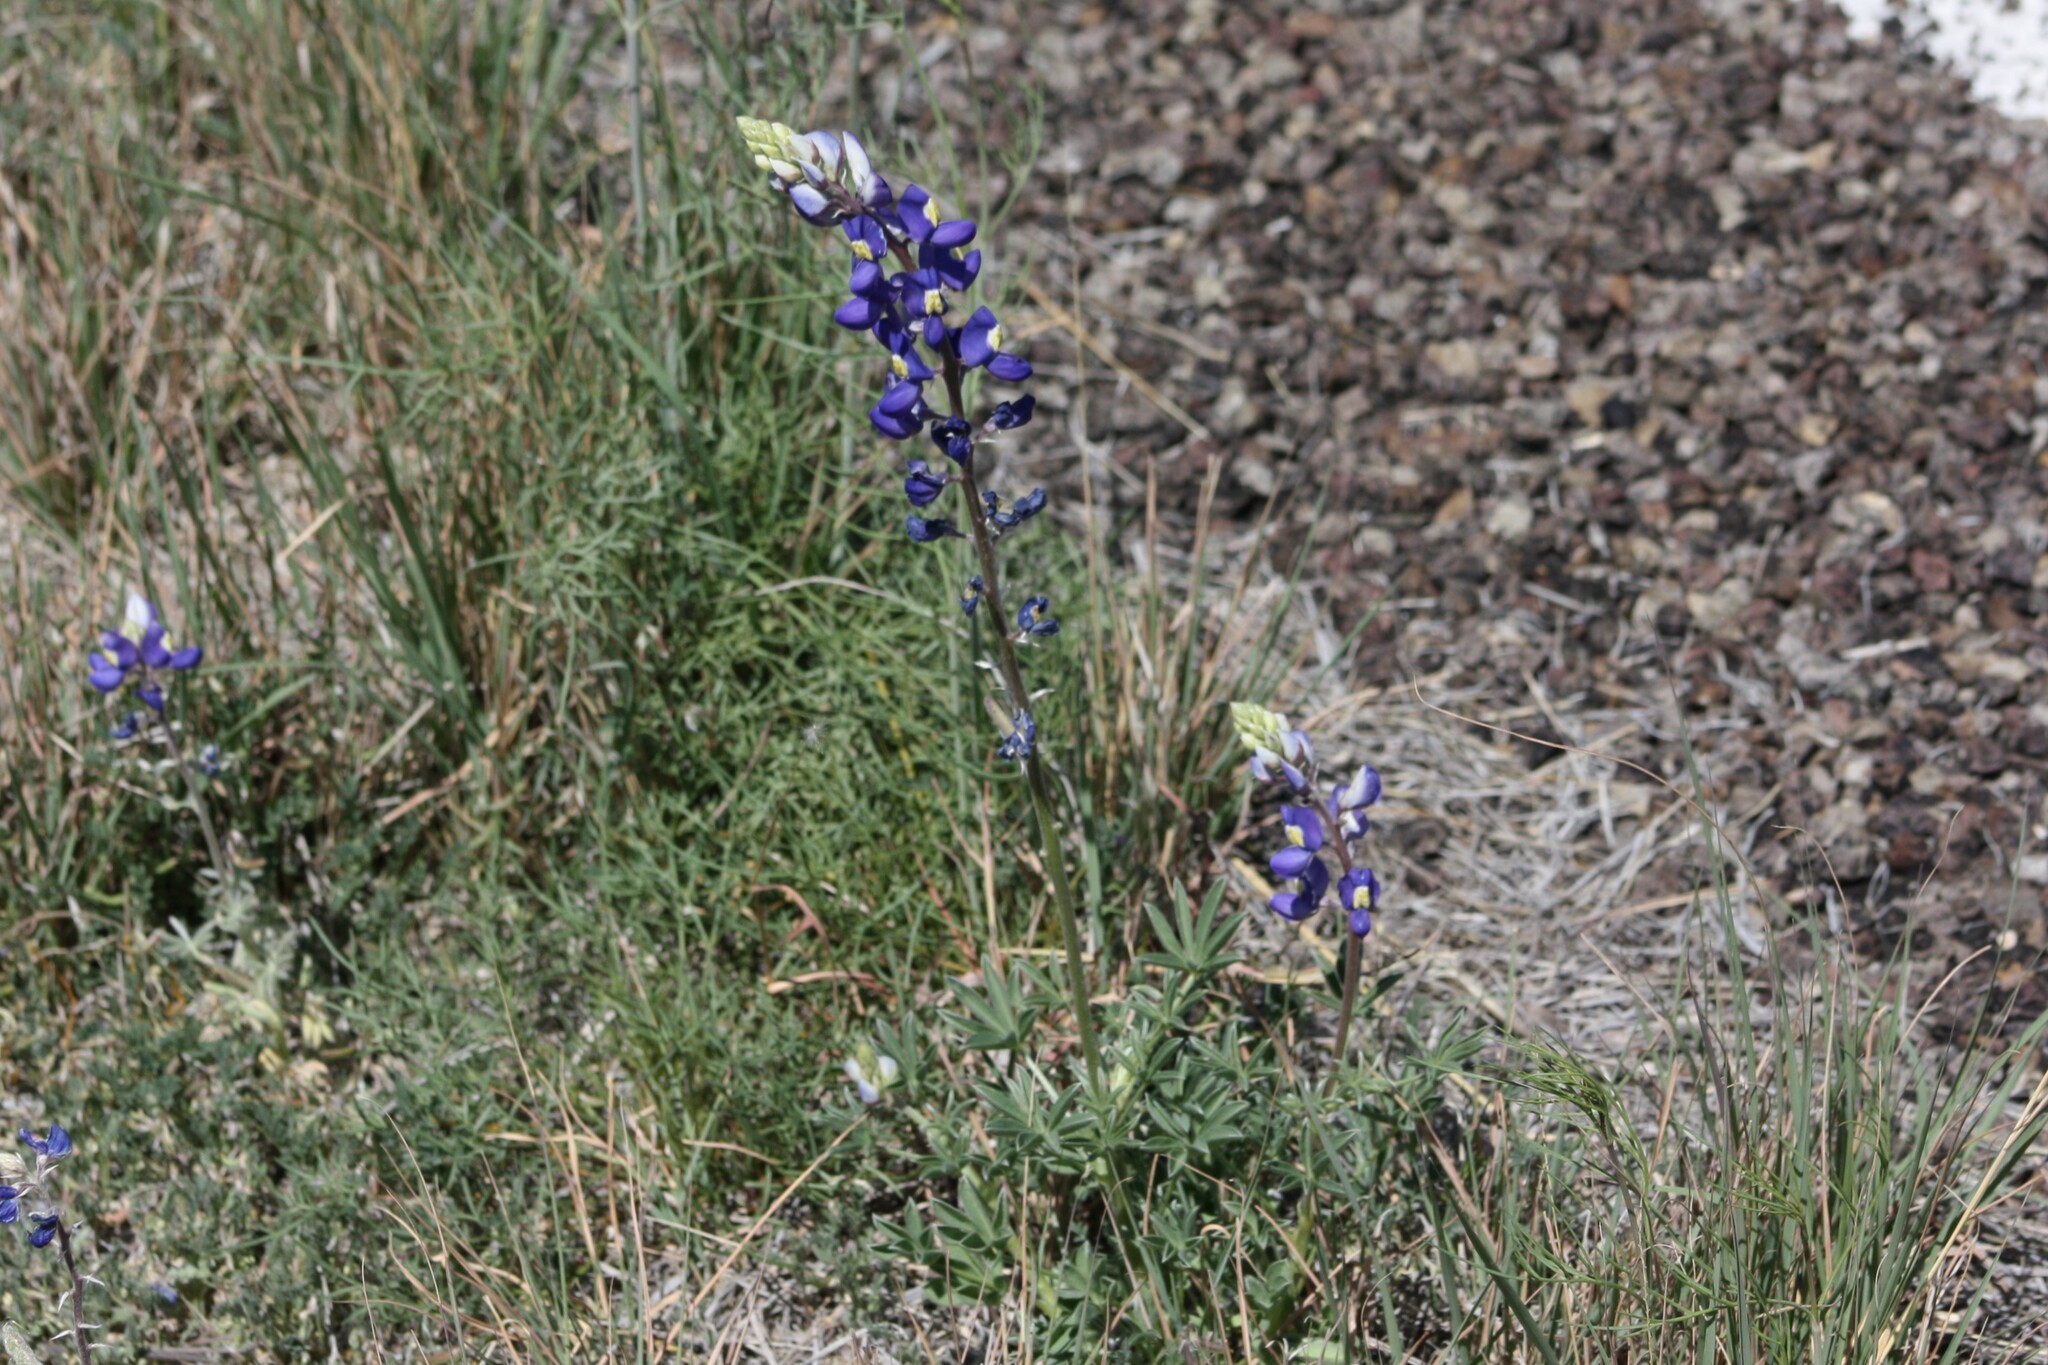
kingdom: Plantae
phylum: Tracheophyta
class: Magnoliopsida
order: Fabales
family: Fabaceae
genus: Lupinus
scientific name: Lupinus havardii
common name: Chisos bluebonnet
